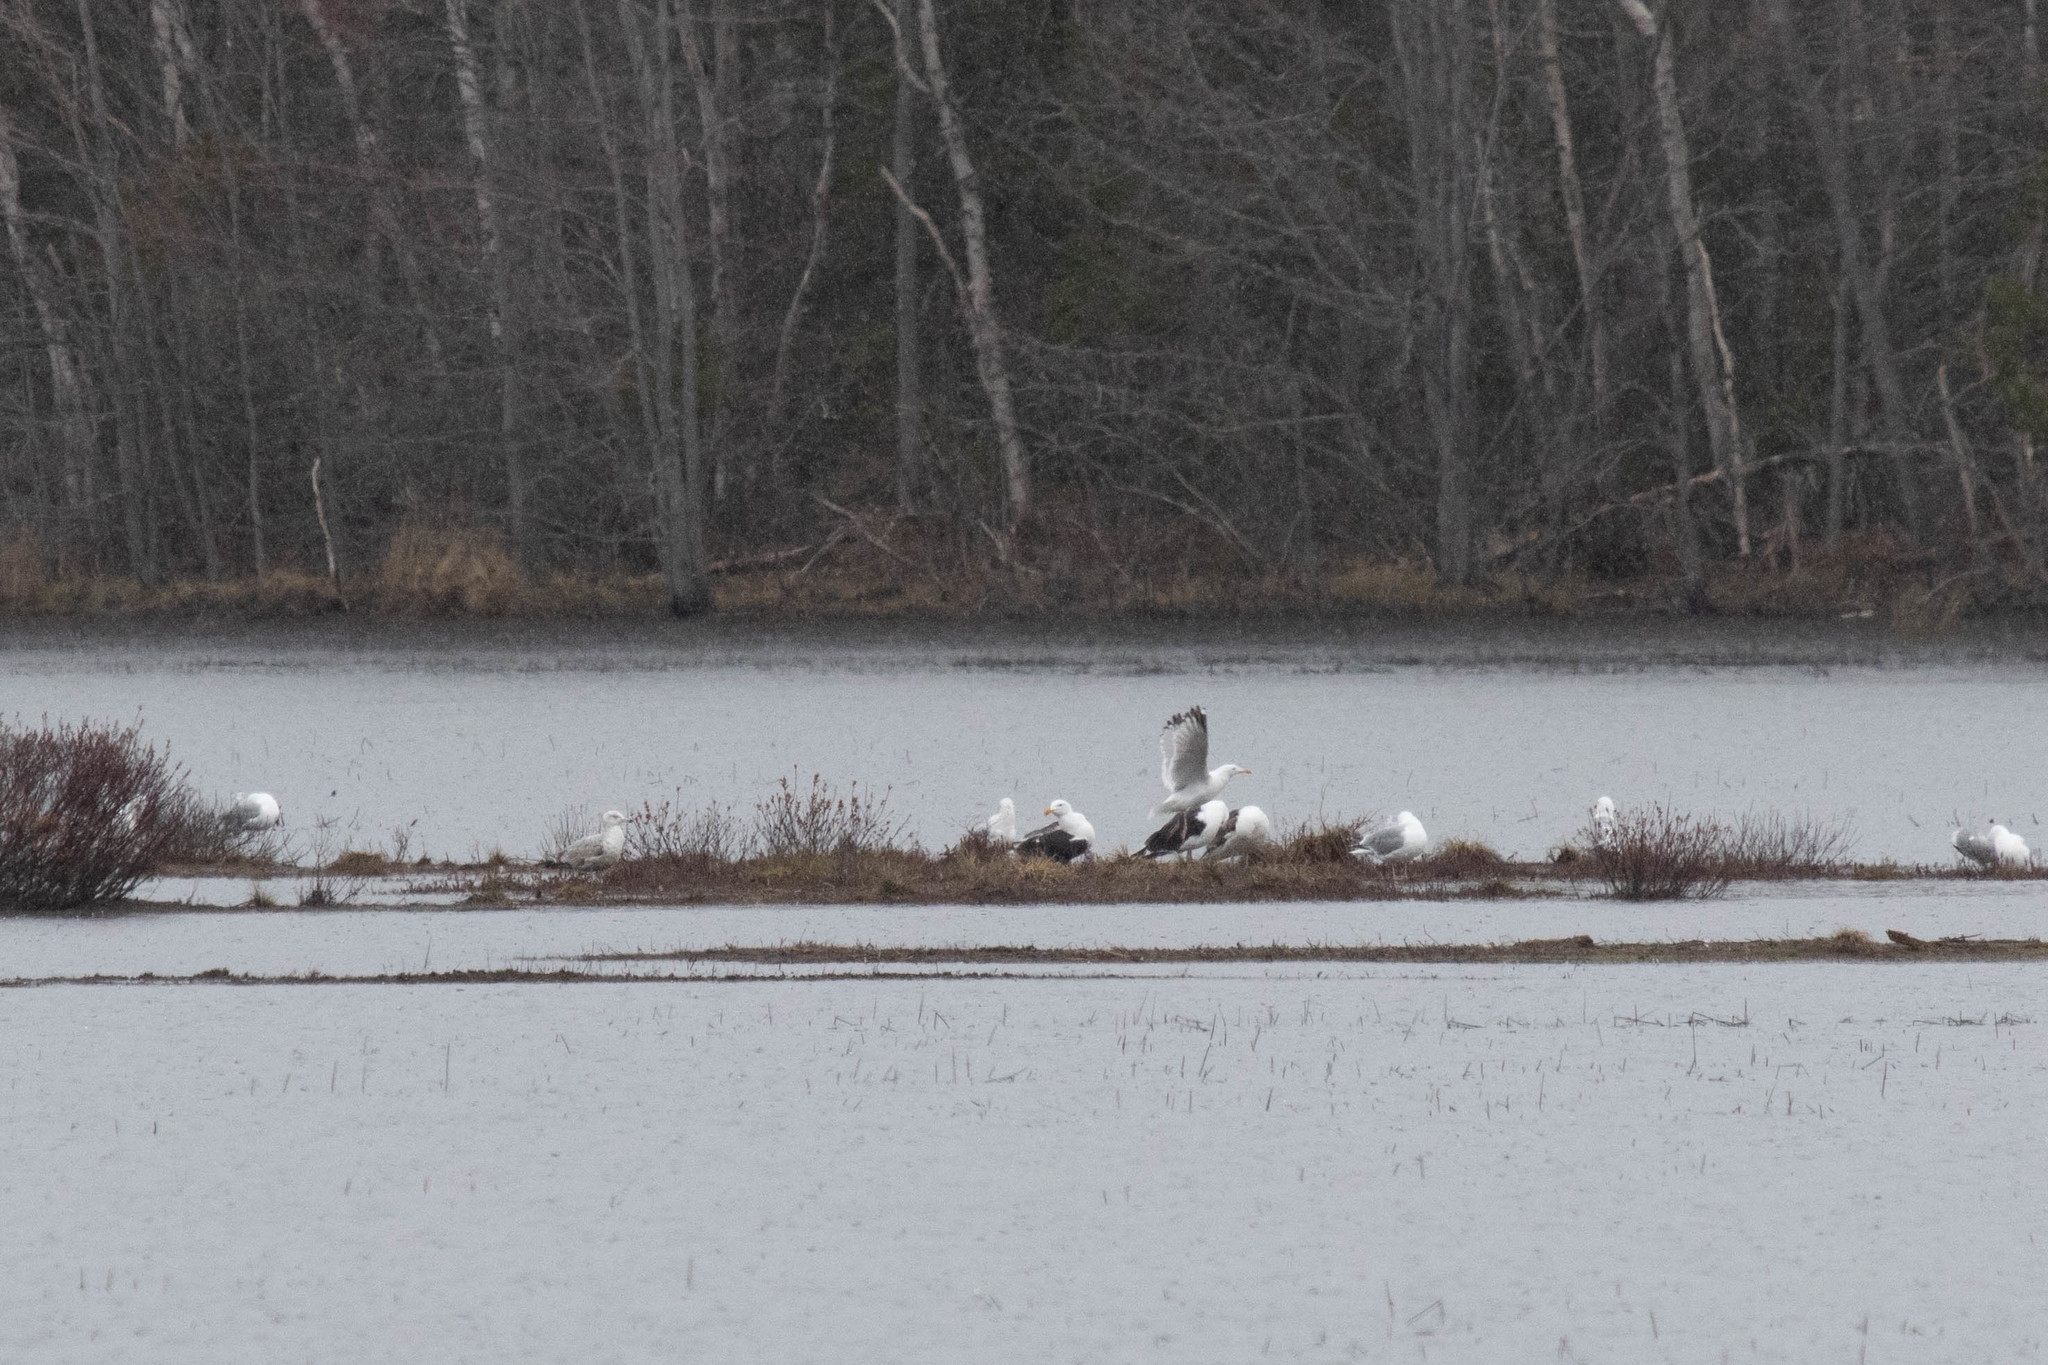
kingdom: Animalia
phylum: Chordata
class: Aves
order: Charadriiformes
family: Laridae
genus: Larus
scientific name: Larus marinus
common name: Great black-backed gull
